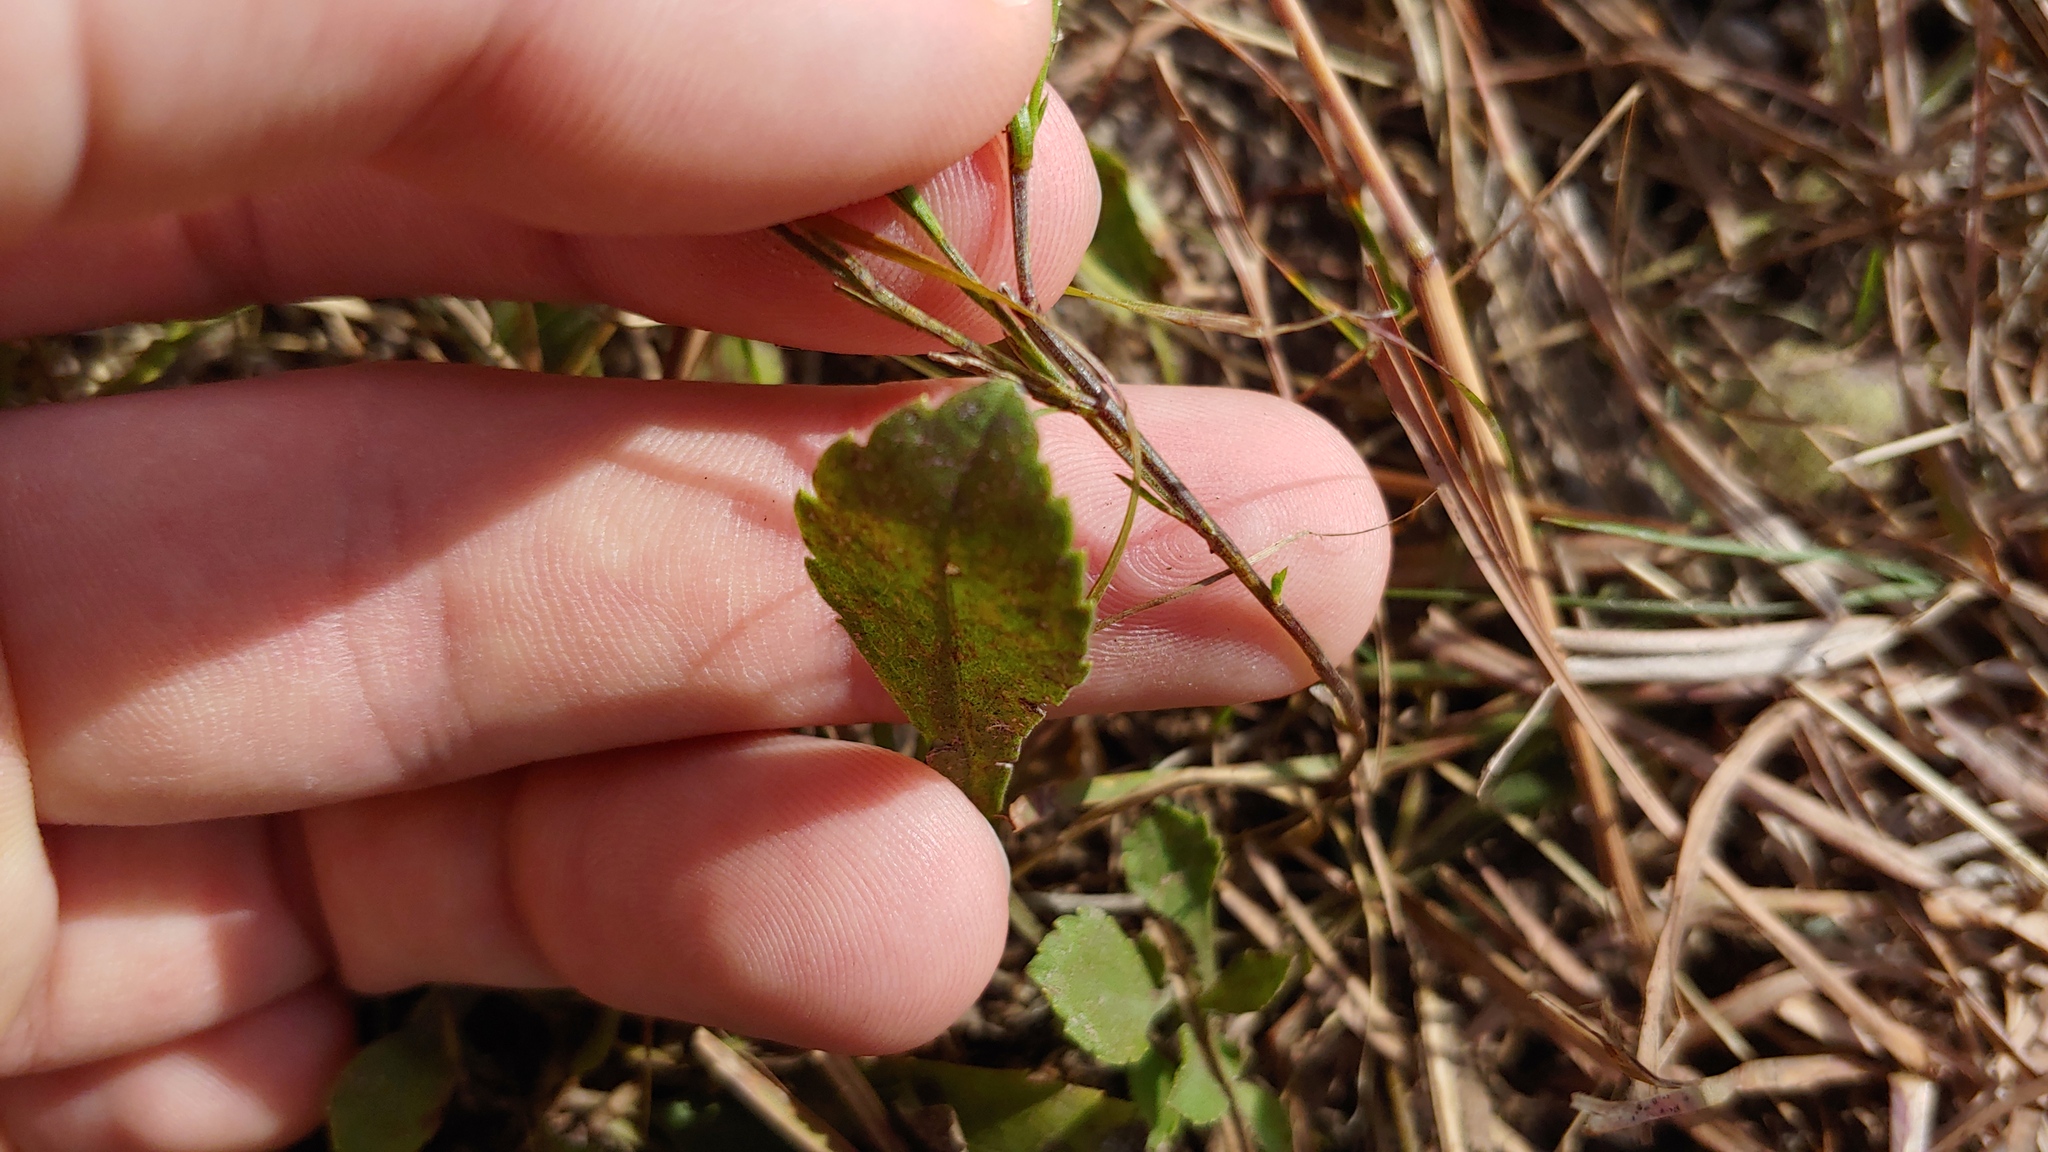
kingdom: Plantae
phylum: Tracheophyta
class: Magnoliopsida
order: Malpighiales
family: Linaceae
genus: Linum
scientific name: Linum sulcatum
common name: Grooved flax
